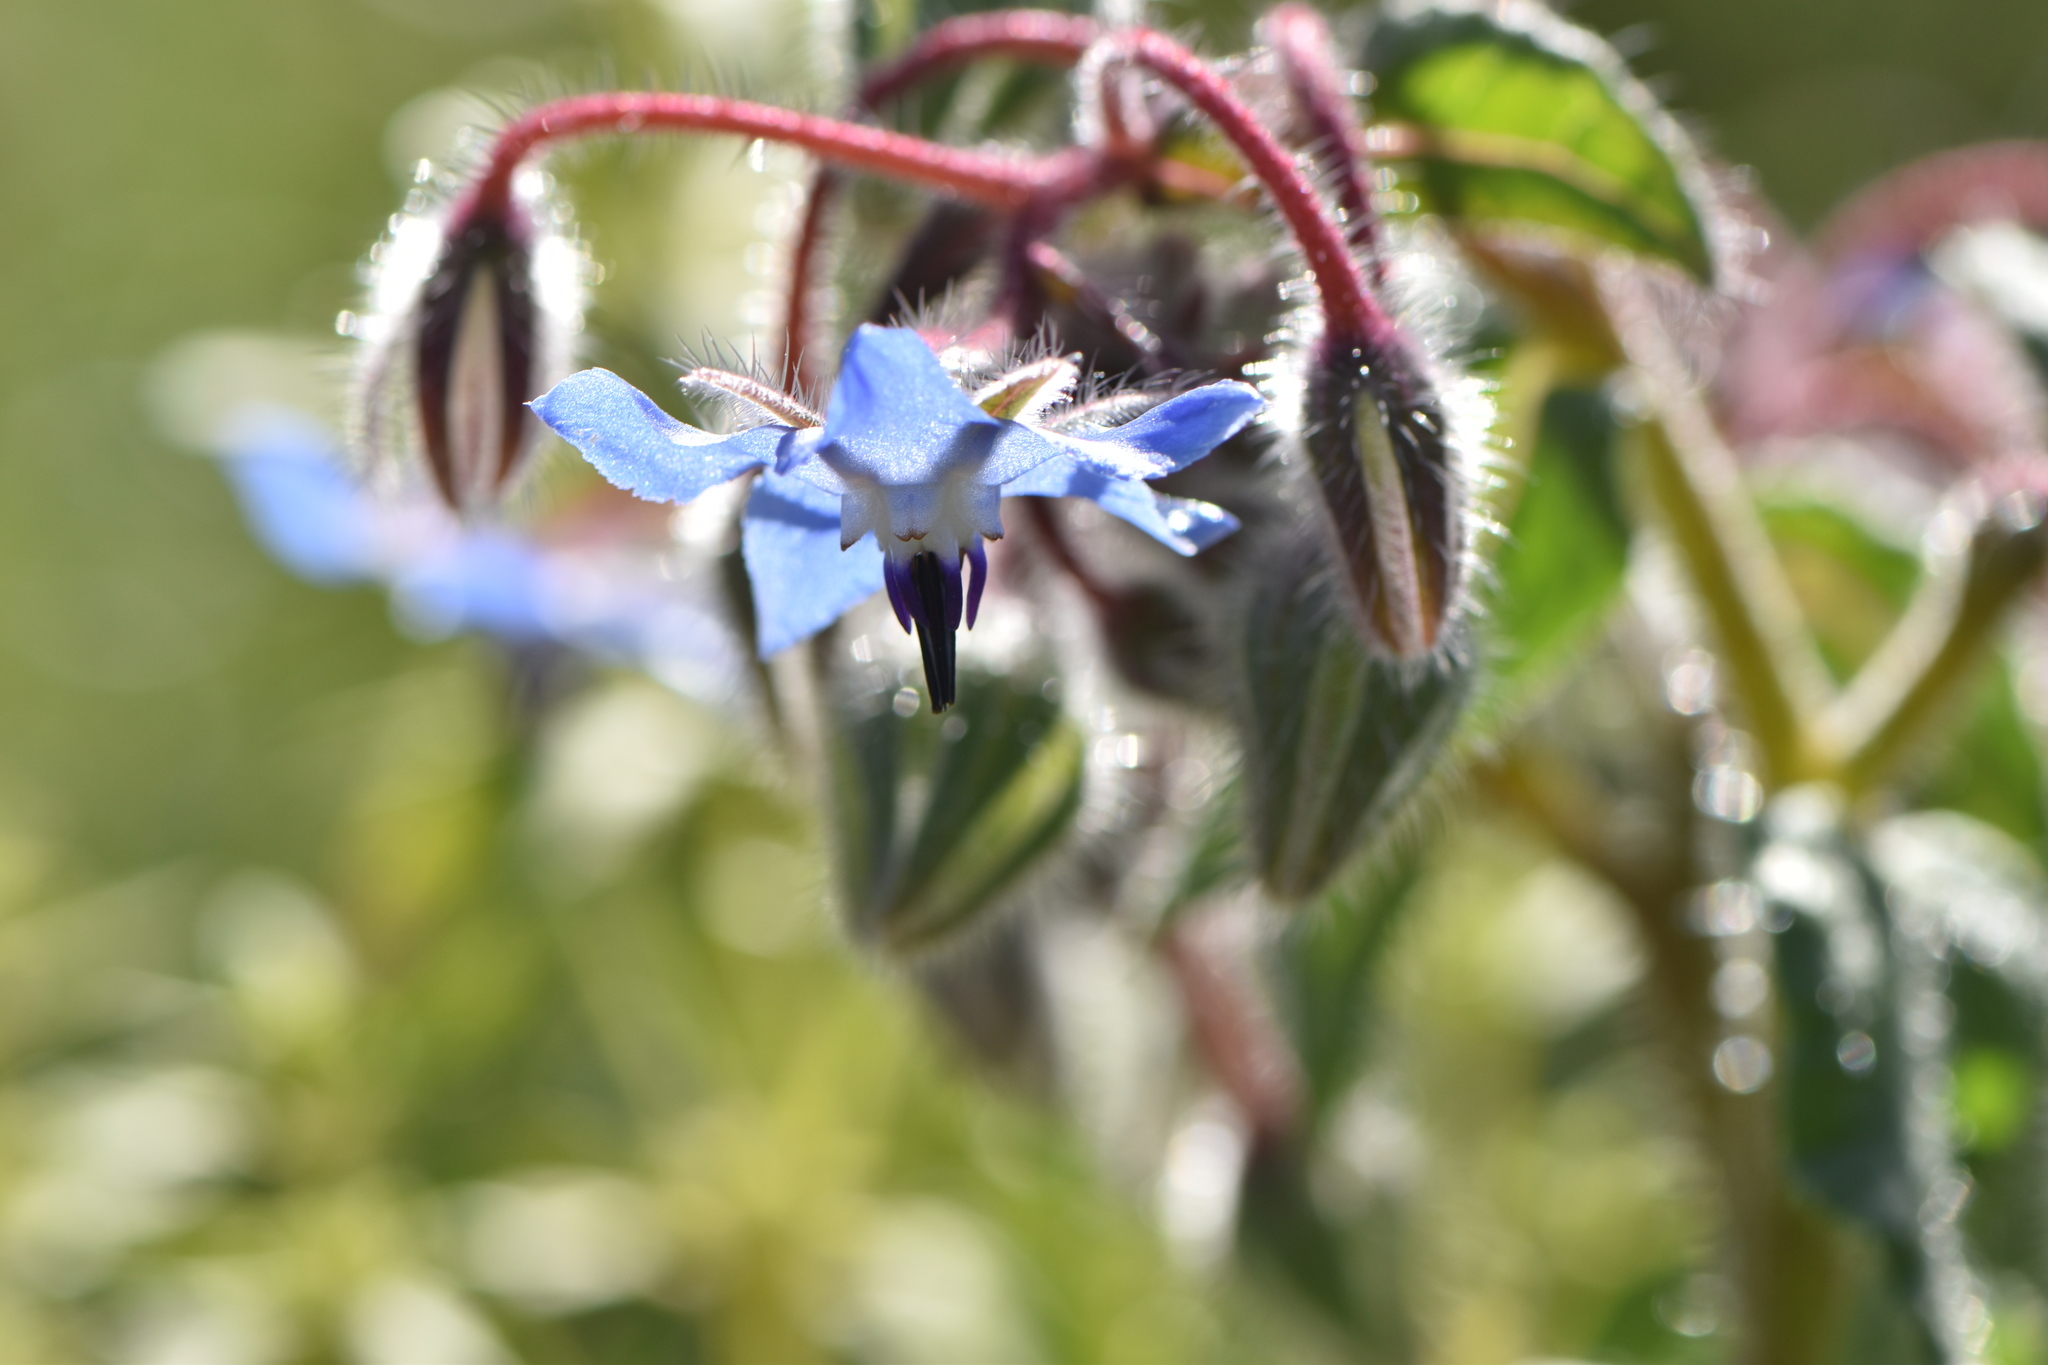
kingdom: Plantae
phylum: Tracheophyta
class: Magnoliopsida
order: Boraginales
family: Boraginaceae
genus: Borago
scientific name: Borago officinalis
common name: Borage
